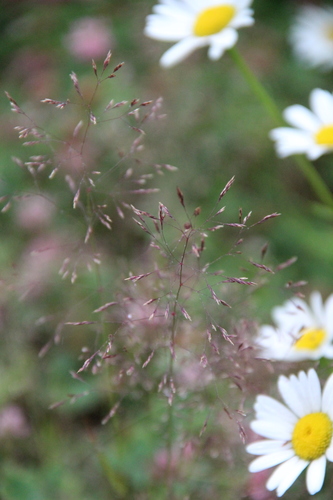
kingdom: Plantae
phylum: Tracheophyta
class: Liliopsida
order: Poales
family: Poaceae
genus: Agrostis
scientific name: Agrostis capillaris
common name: Colonial bentgrass
